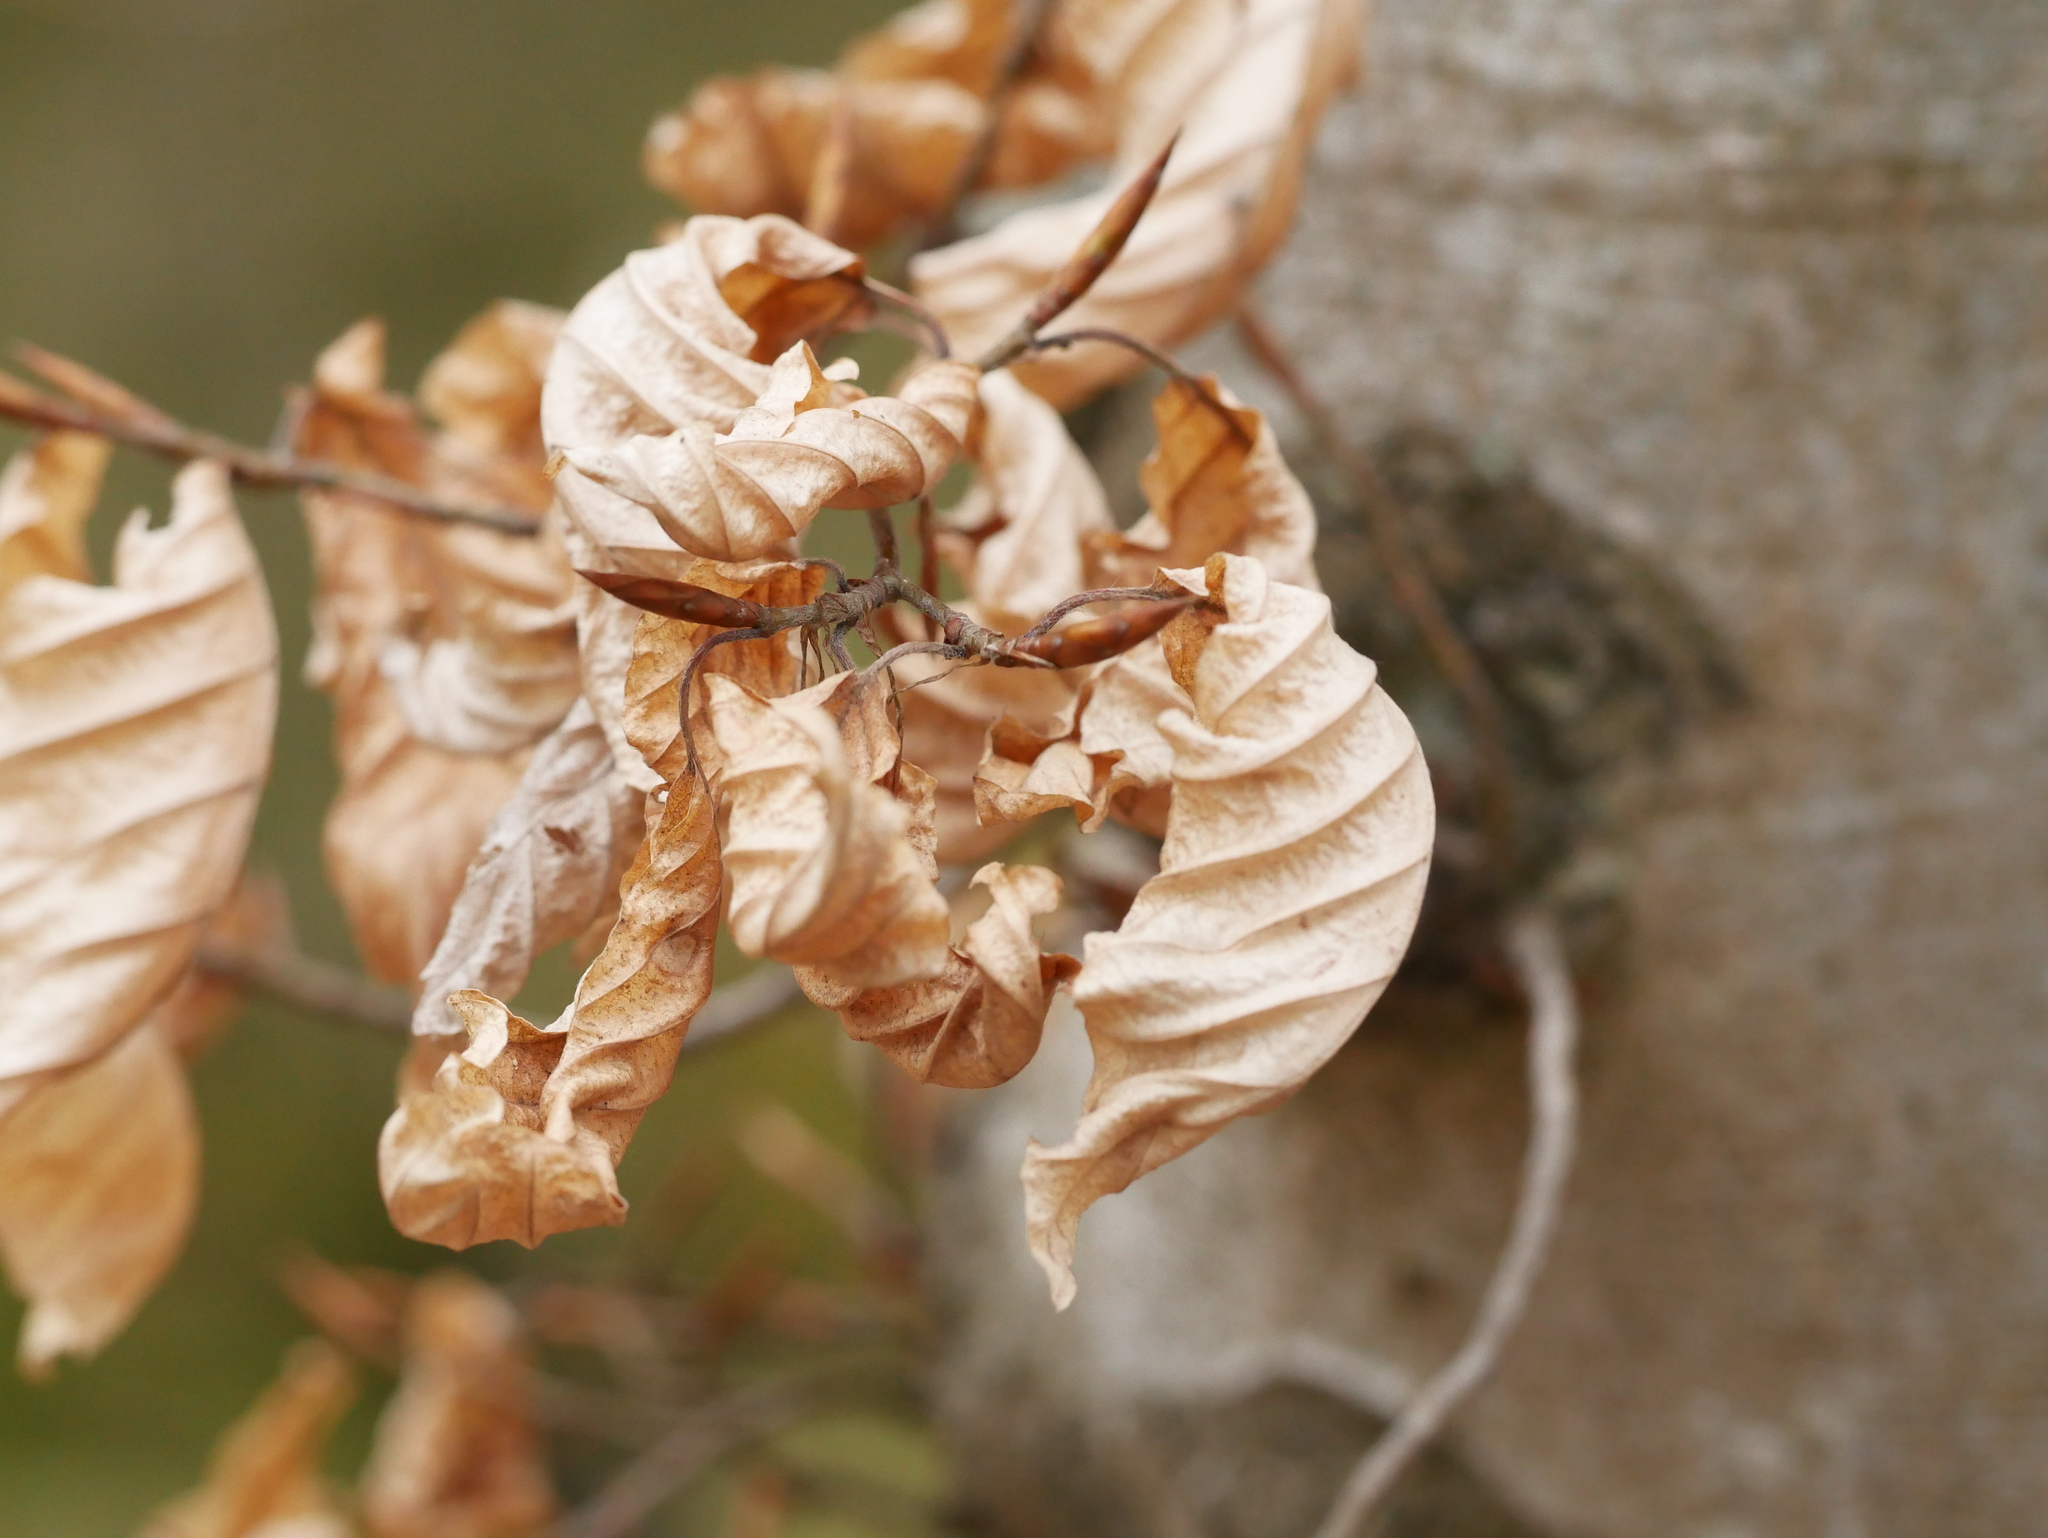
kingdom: Plantae
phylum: Tracheophyta
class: Magnoliopsida
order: Fagales
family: Fagaceae
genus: Fagus
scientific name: Fagus sylvatica
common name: Beech
